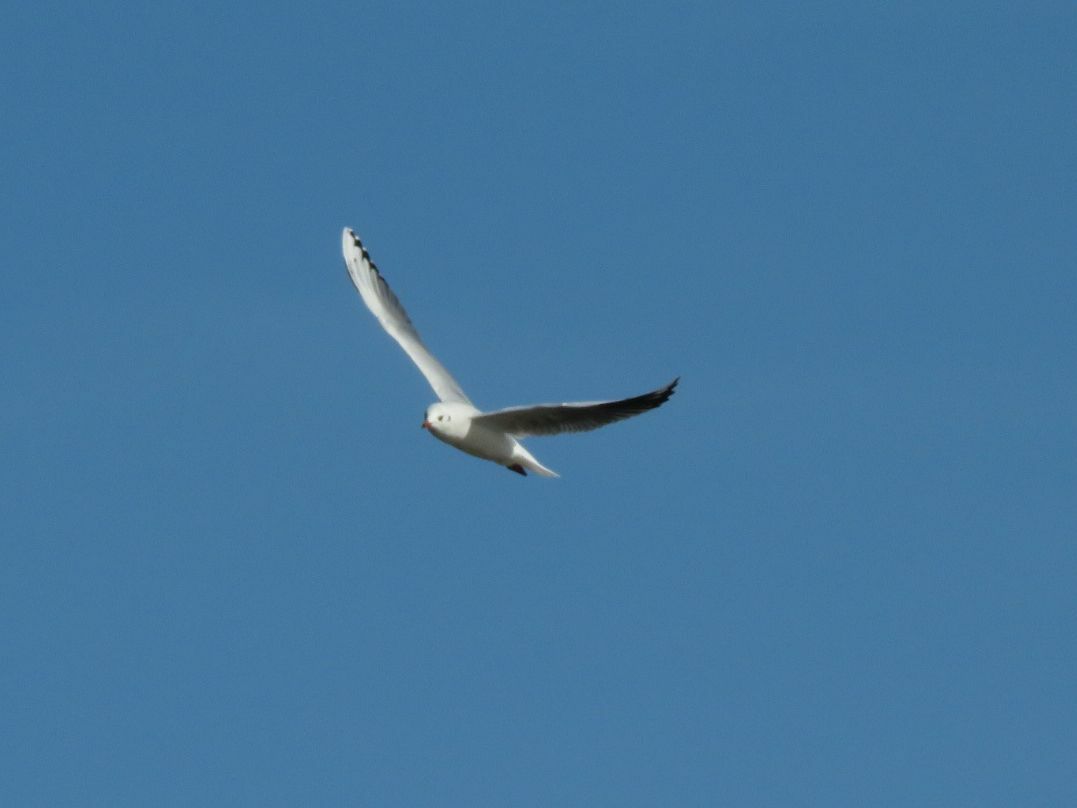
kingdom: Animalia
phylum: Chordata
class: Aves
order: Charadriiformes
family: Laridae
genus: Chroicocephalus
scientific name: Chroicocephalus maculipennis
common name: Brown-hooded gull
